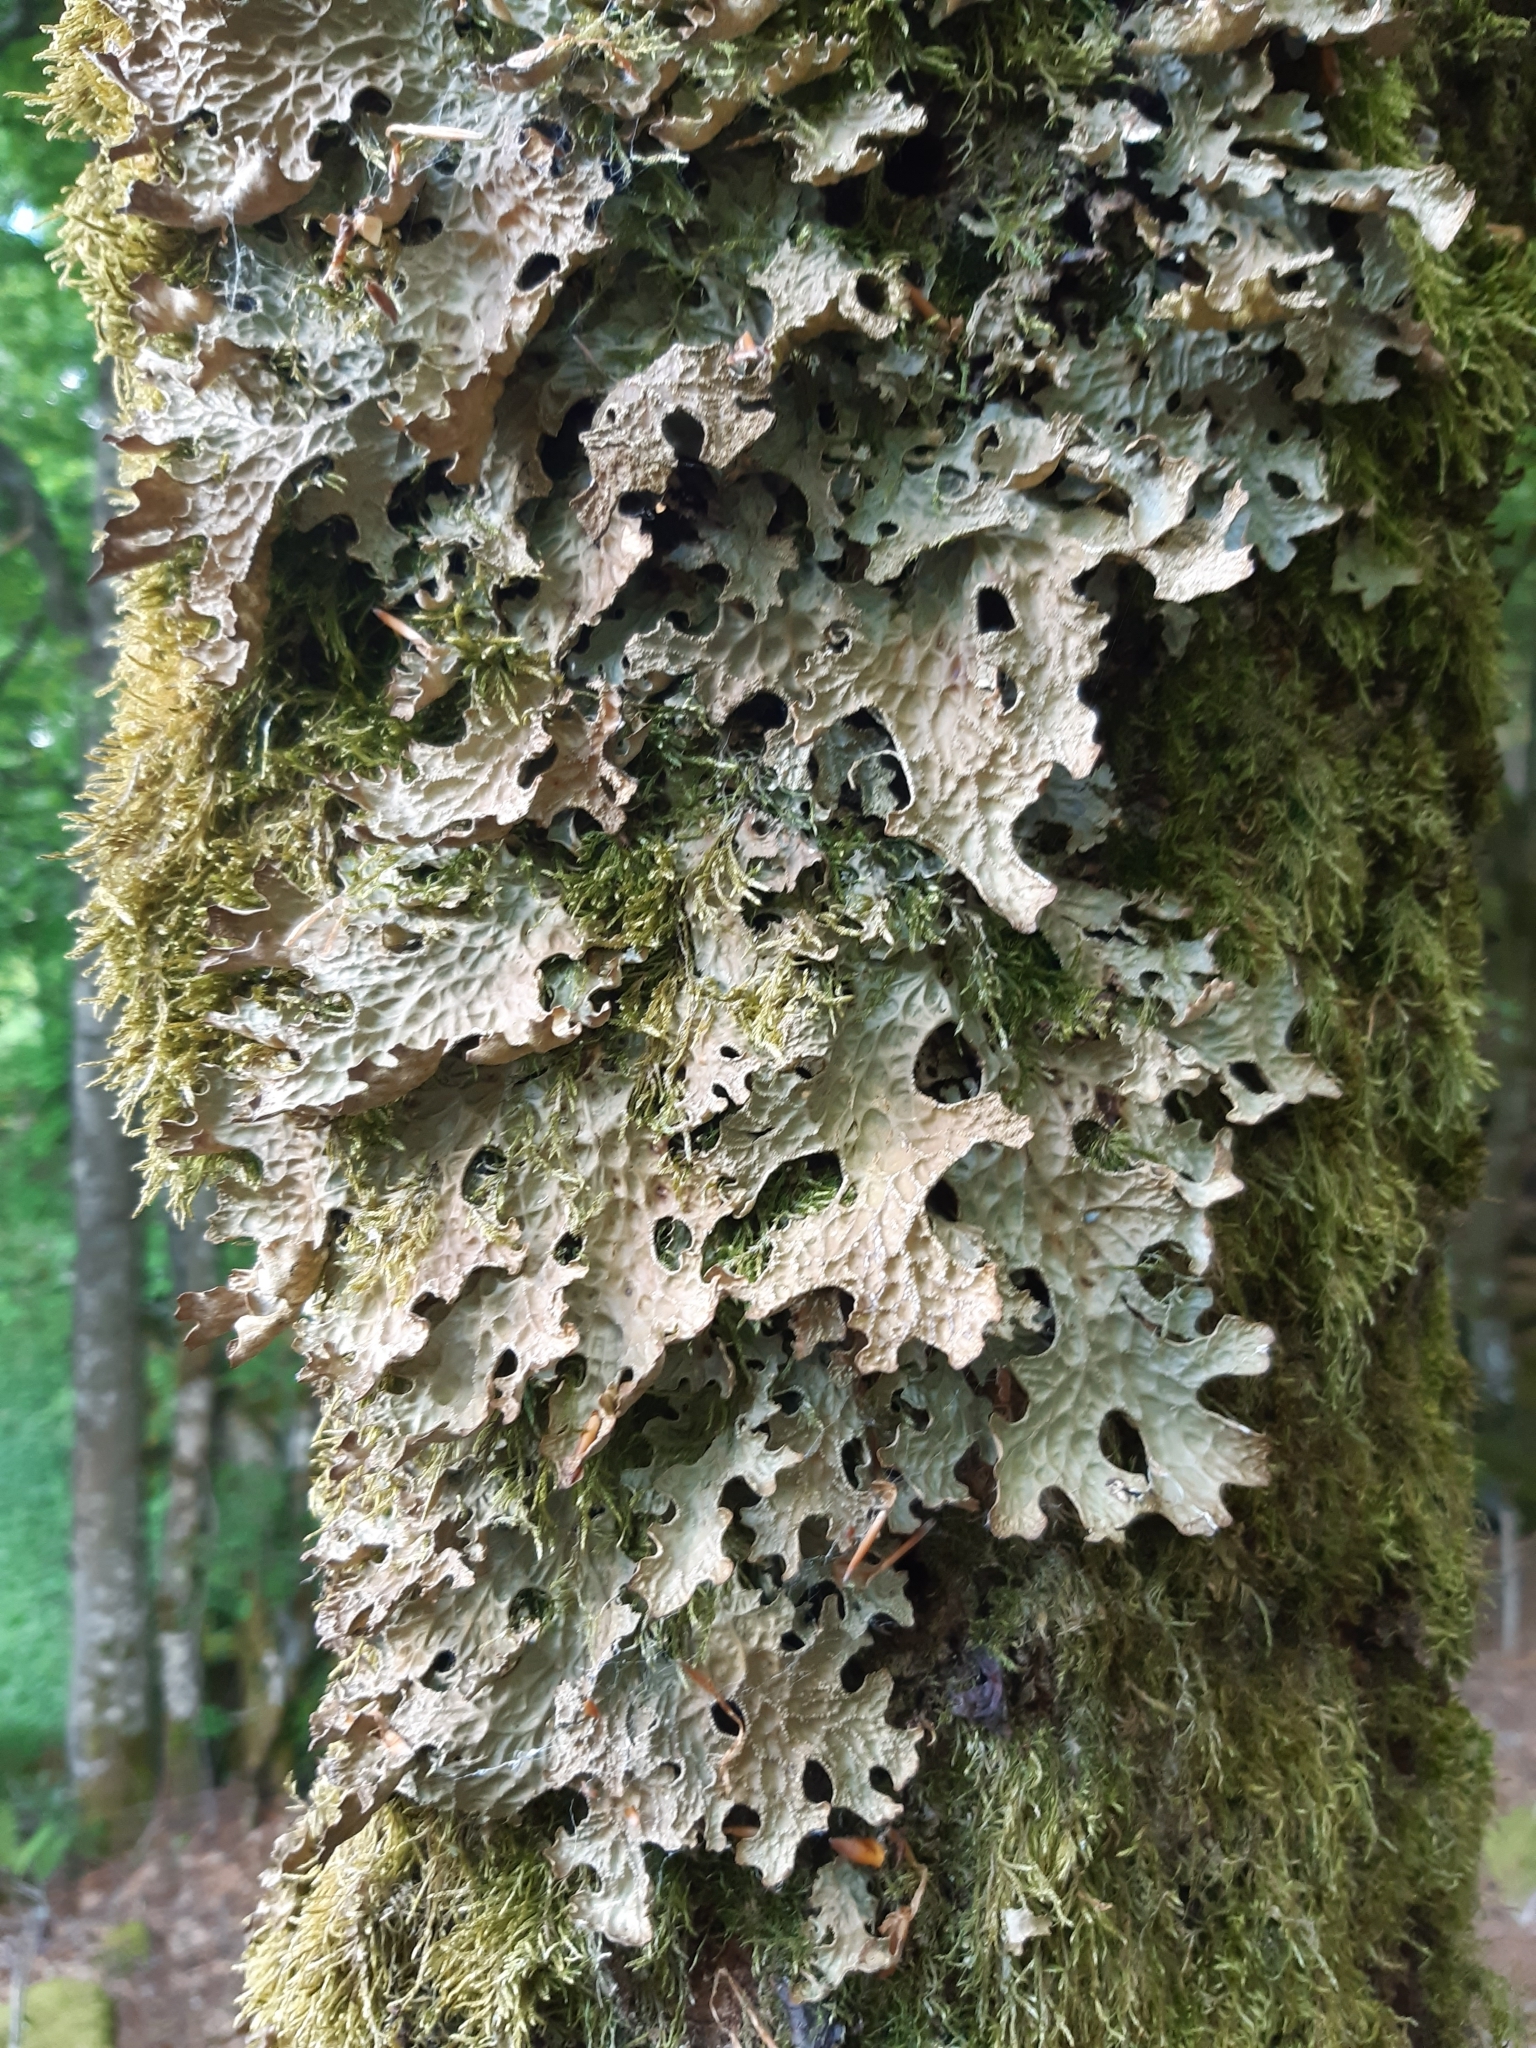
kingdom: Fungi
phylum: Ascomycota
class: Lecanoromycetes
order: Peltigerales
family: Lobariaceae
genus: Lobaria
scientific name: Lobaria pulmonaria
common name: Lungwort
